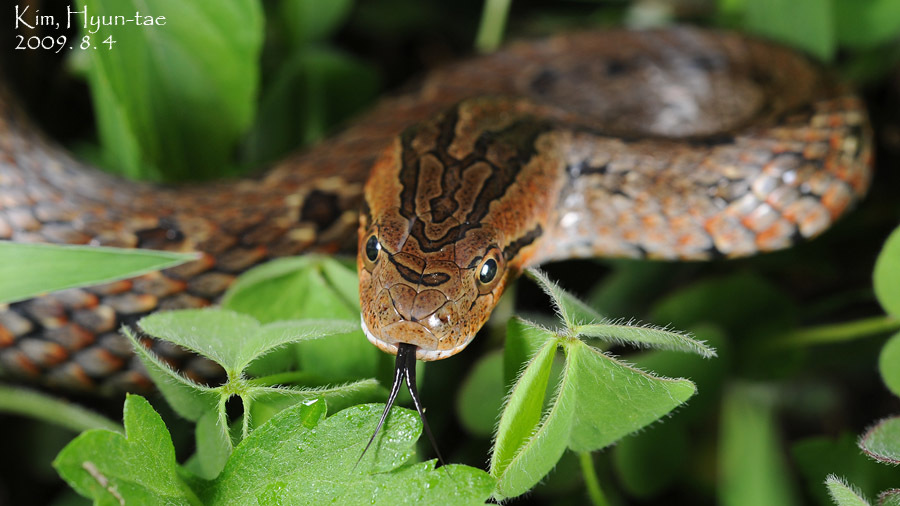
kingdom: Animalia
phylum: Chordata
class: Squamata
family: Colubridae
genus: Oocatochus
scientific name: Oocatochus rufodorsatus
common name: Frog-eating rat snake
